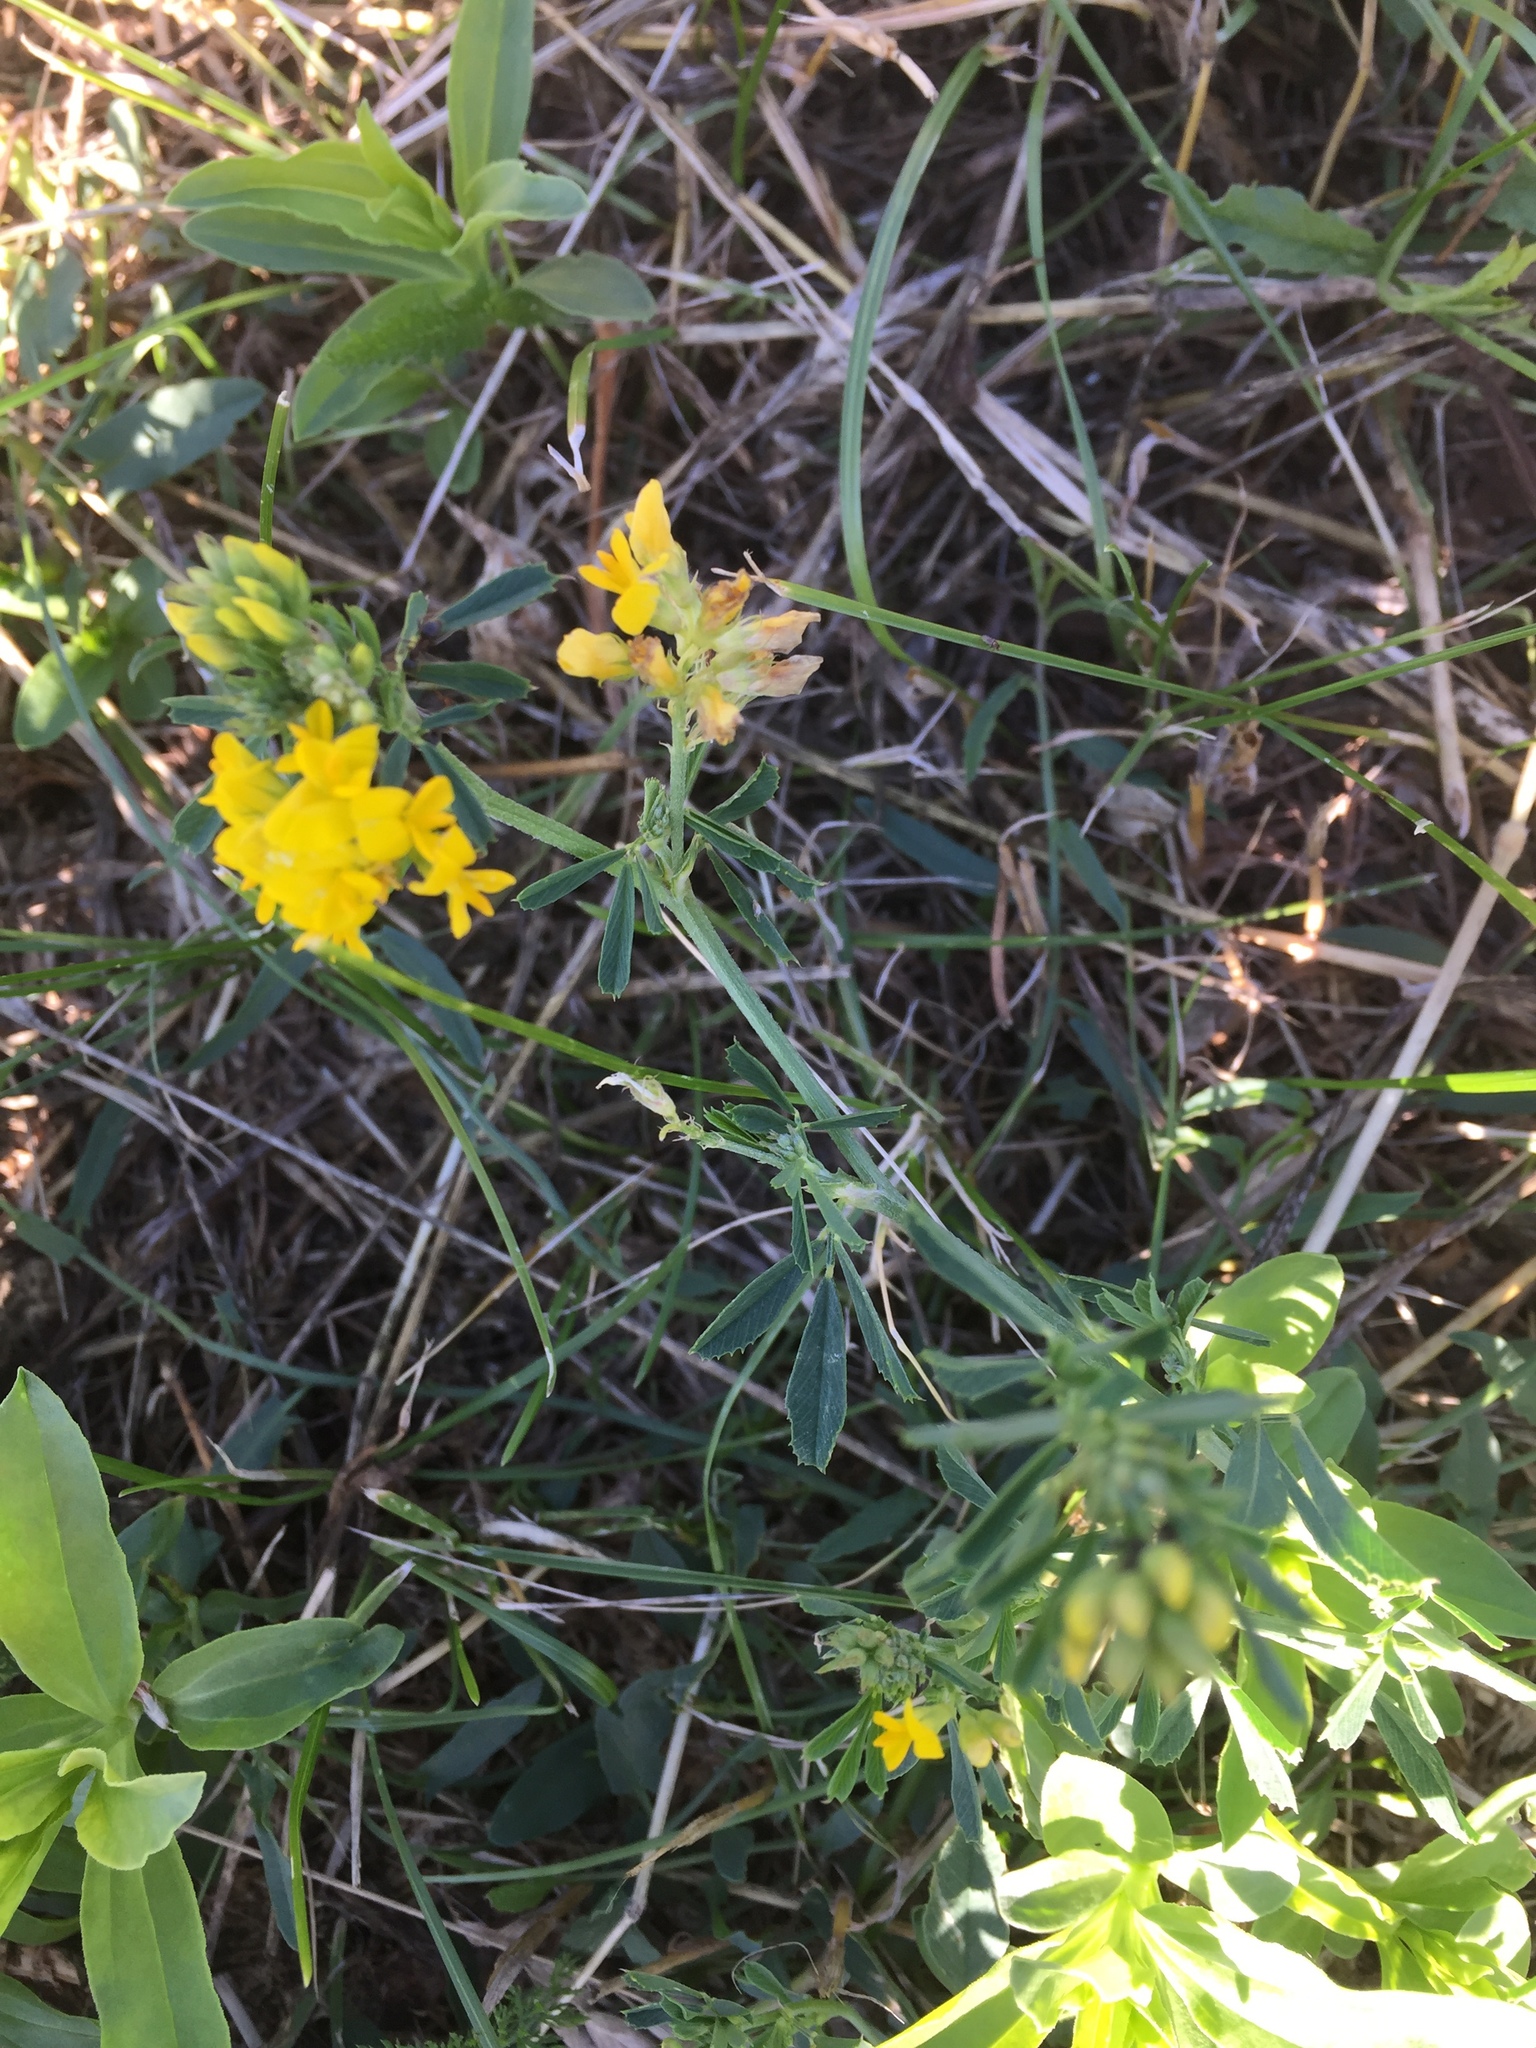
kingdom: Plantae
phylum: Tracheophyta
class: Magnoliopsida
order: Fabales
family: Fabaceae
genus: Medicago
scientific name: Medicago falcata
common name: Sickle medick
